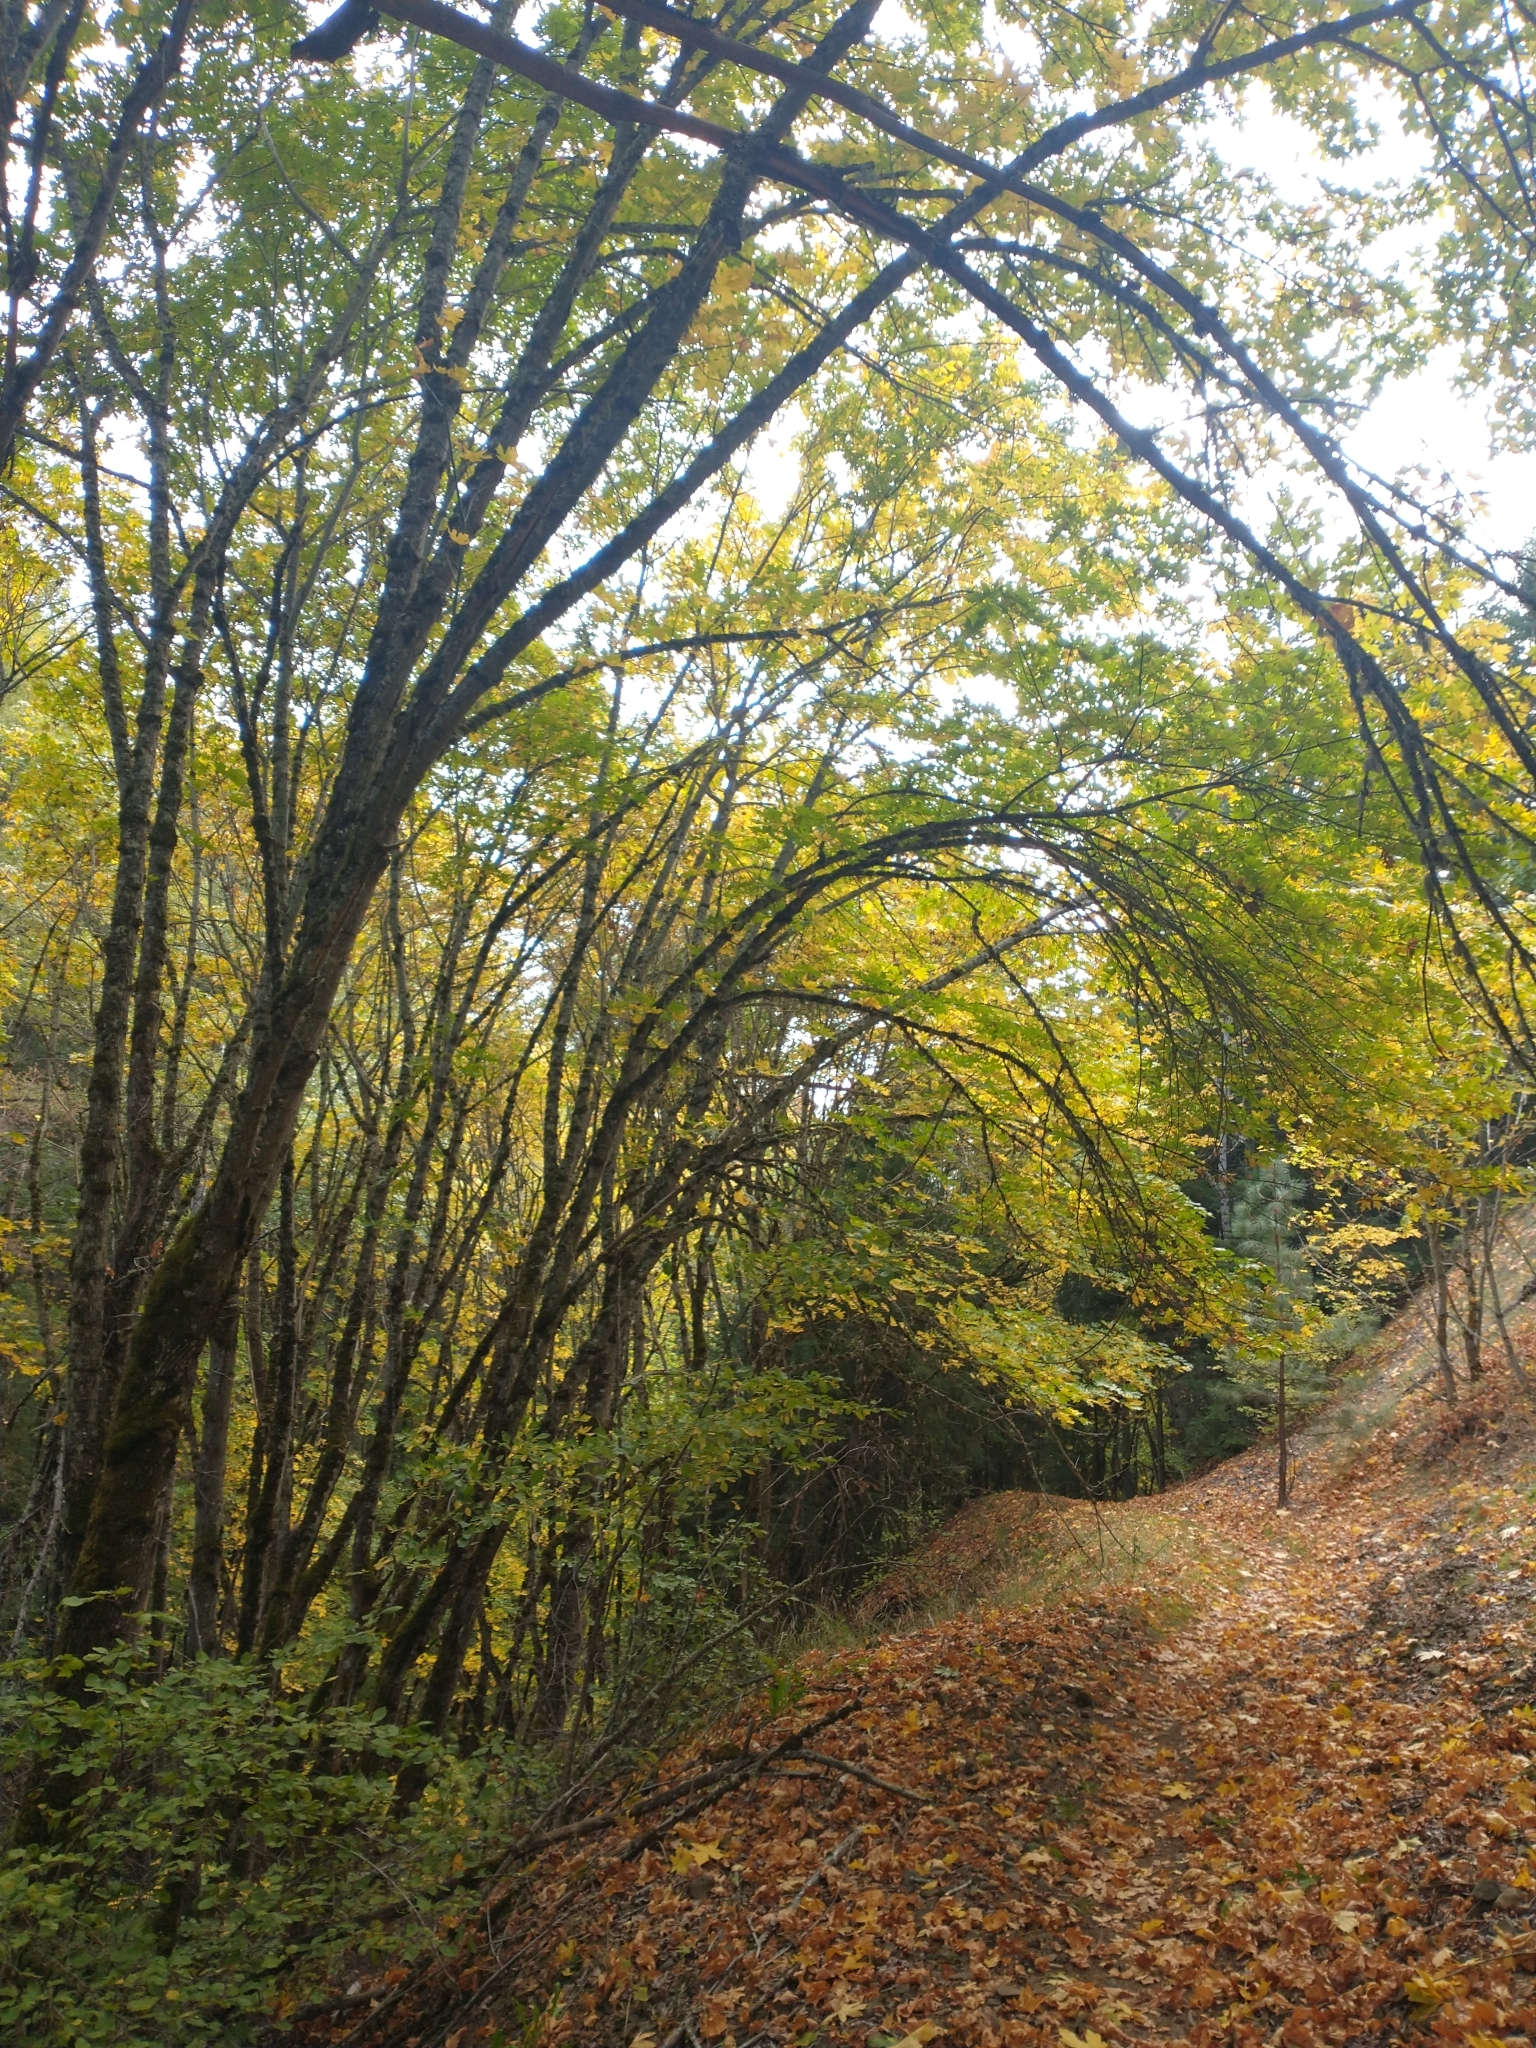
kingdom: Plantae
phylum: Tracheophyta
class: Magnoliopsida
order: Sapindales
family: Sapindaceae
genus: Acer
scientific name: Acer macrophyllum
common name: Oregon maple
